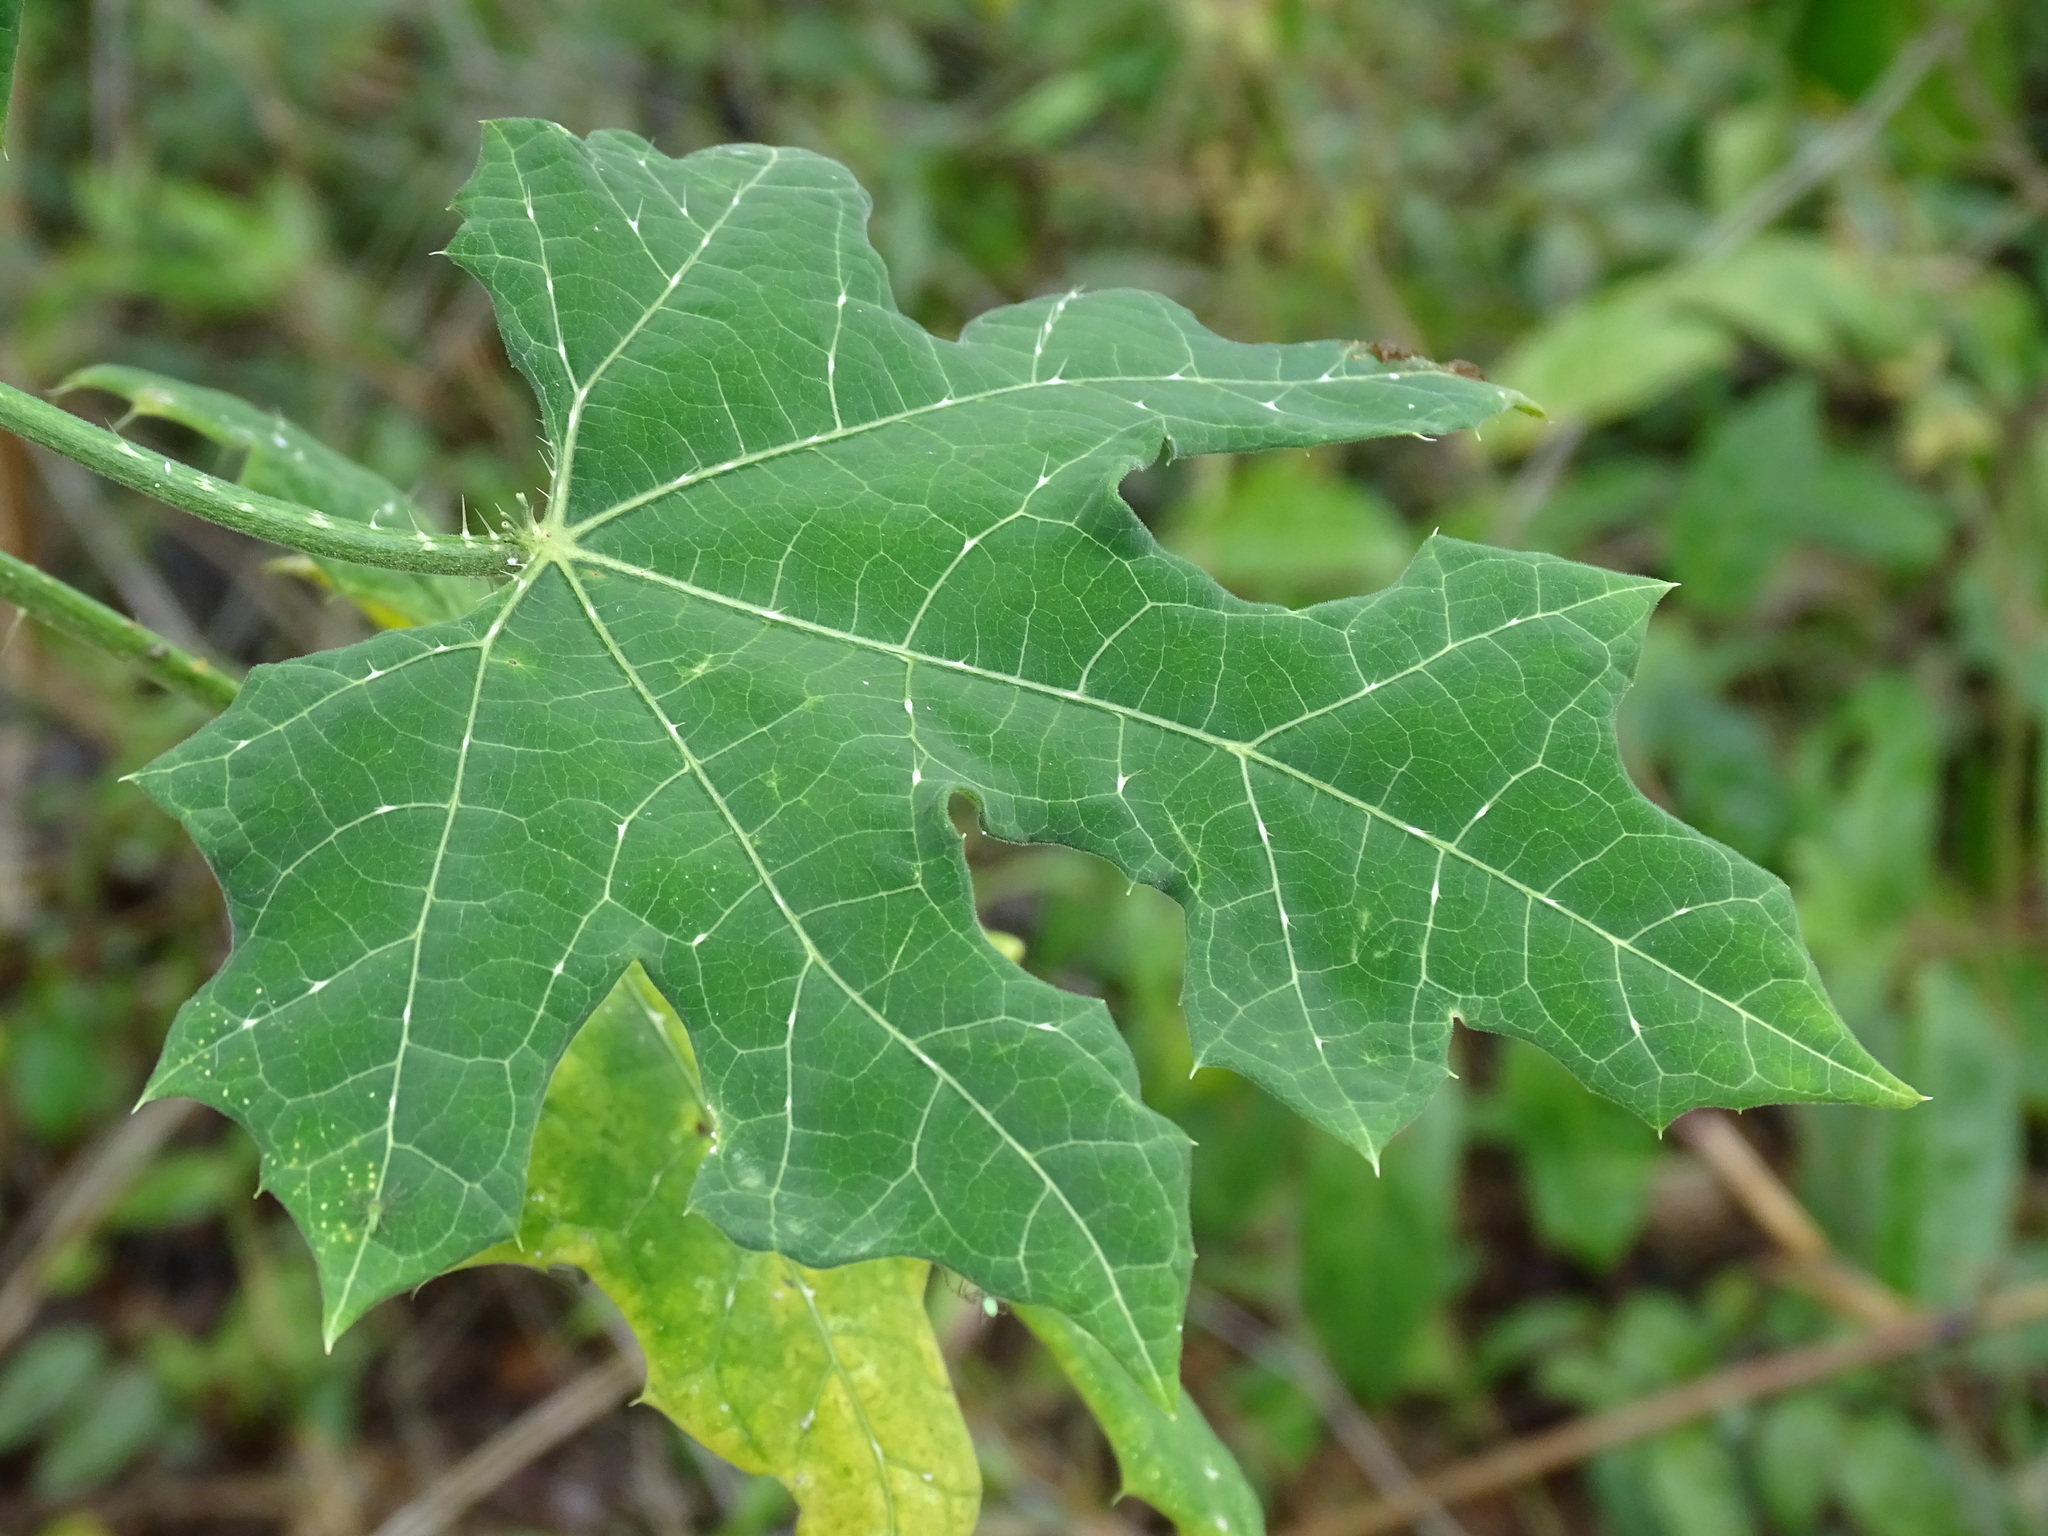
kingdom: Plantae
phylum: Tracheophyta
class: Magnoliopsida
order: Malpighiales
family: Euphorbiaceae
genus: Cnidoscolus
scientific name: Cnidoscolus souzae
